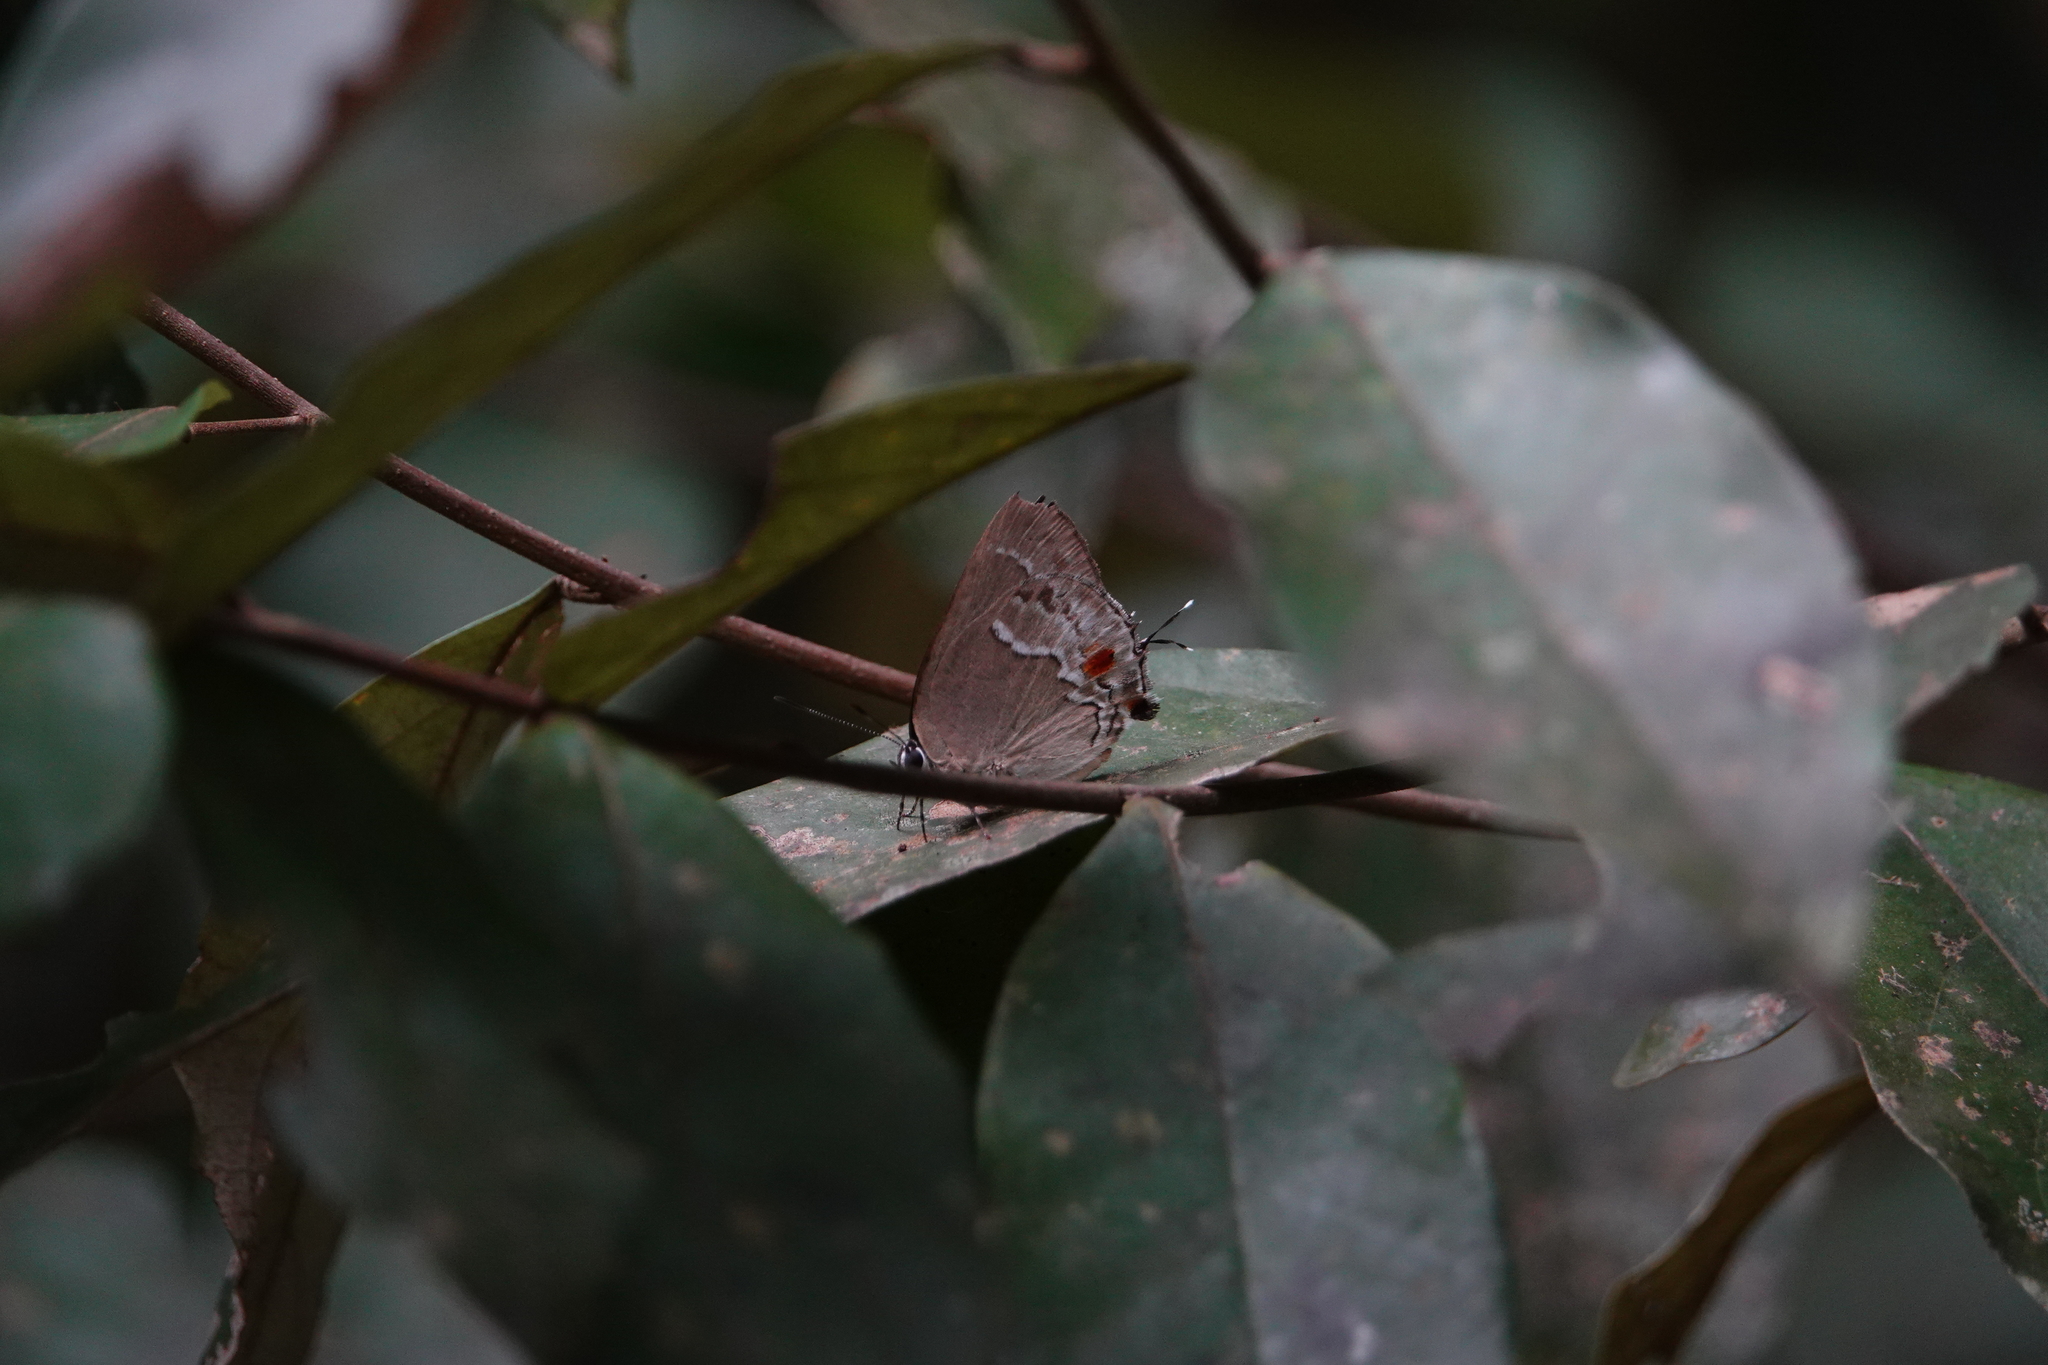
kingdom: Animalia
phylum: Arthropoda
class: Insecta
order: Lepidoptera
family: Lycaenidae
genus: Thecla
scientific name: Thecla syedra
